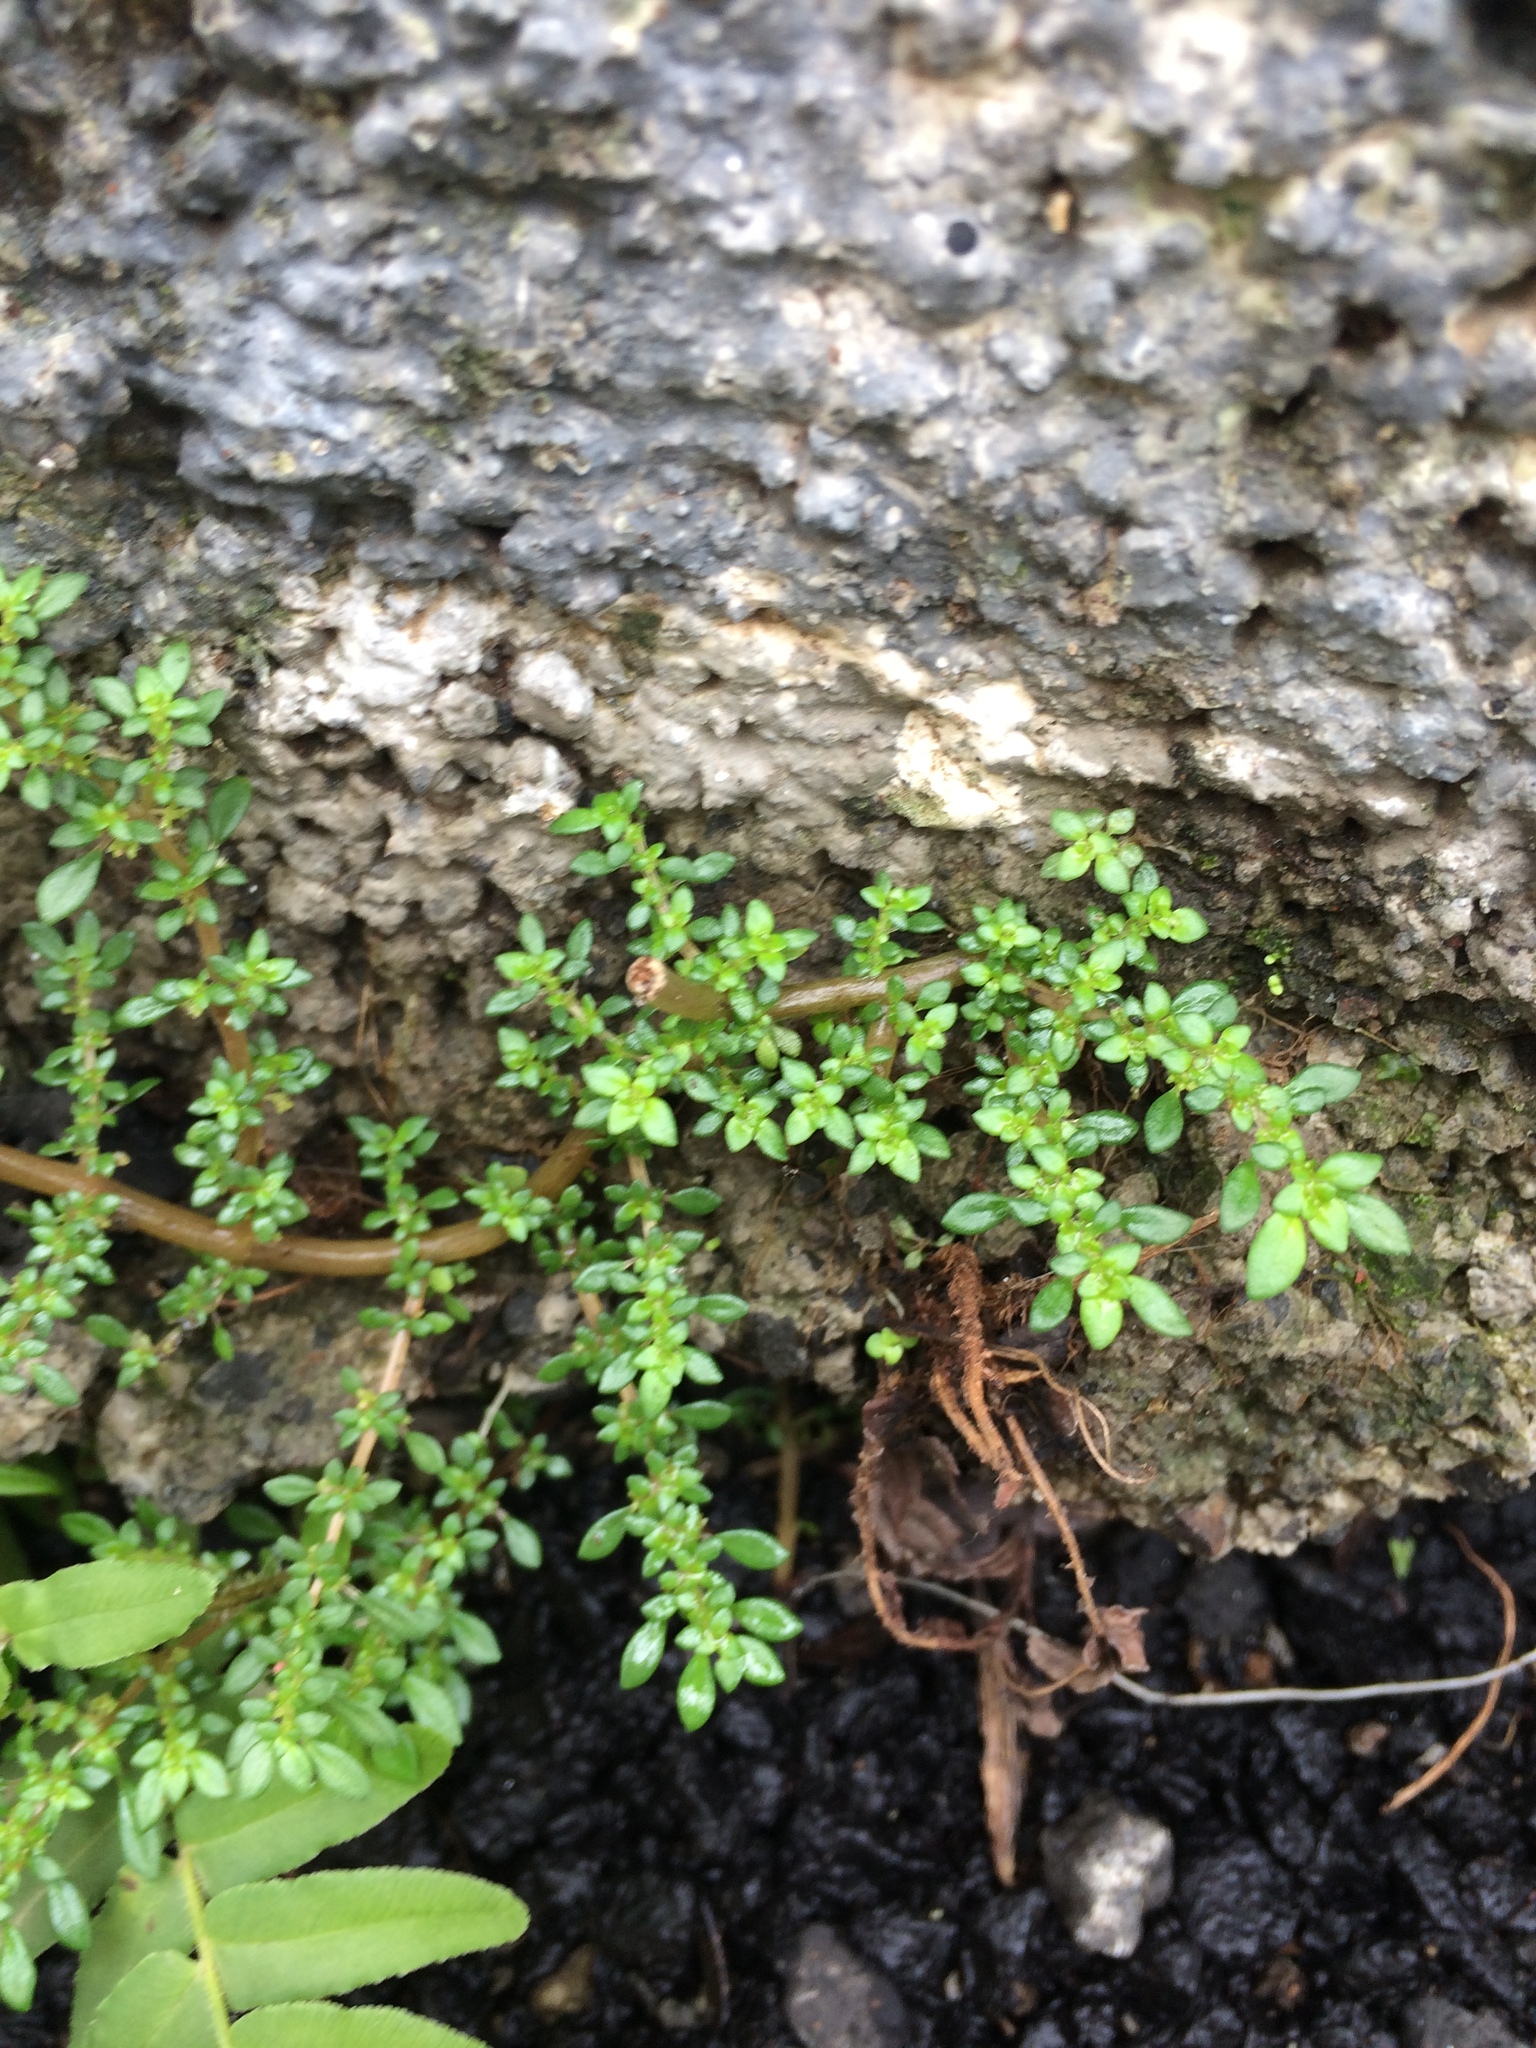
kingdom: Plantae
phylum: Tracheophyta
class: Magnoliopsida
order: Rosales
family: Urticaceae
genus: Pilea
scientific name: Pilea microphylla
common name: Artillery-plant
